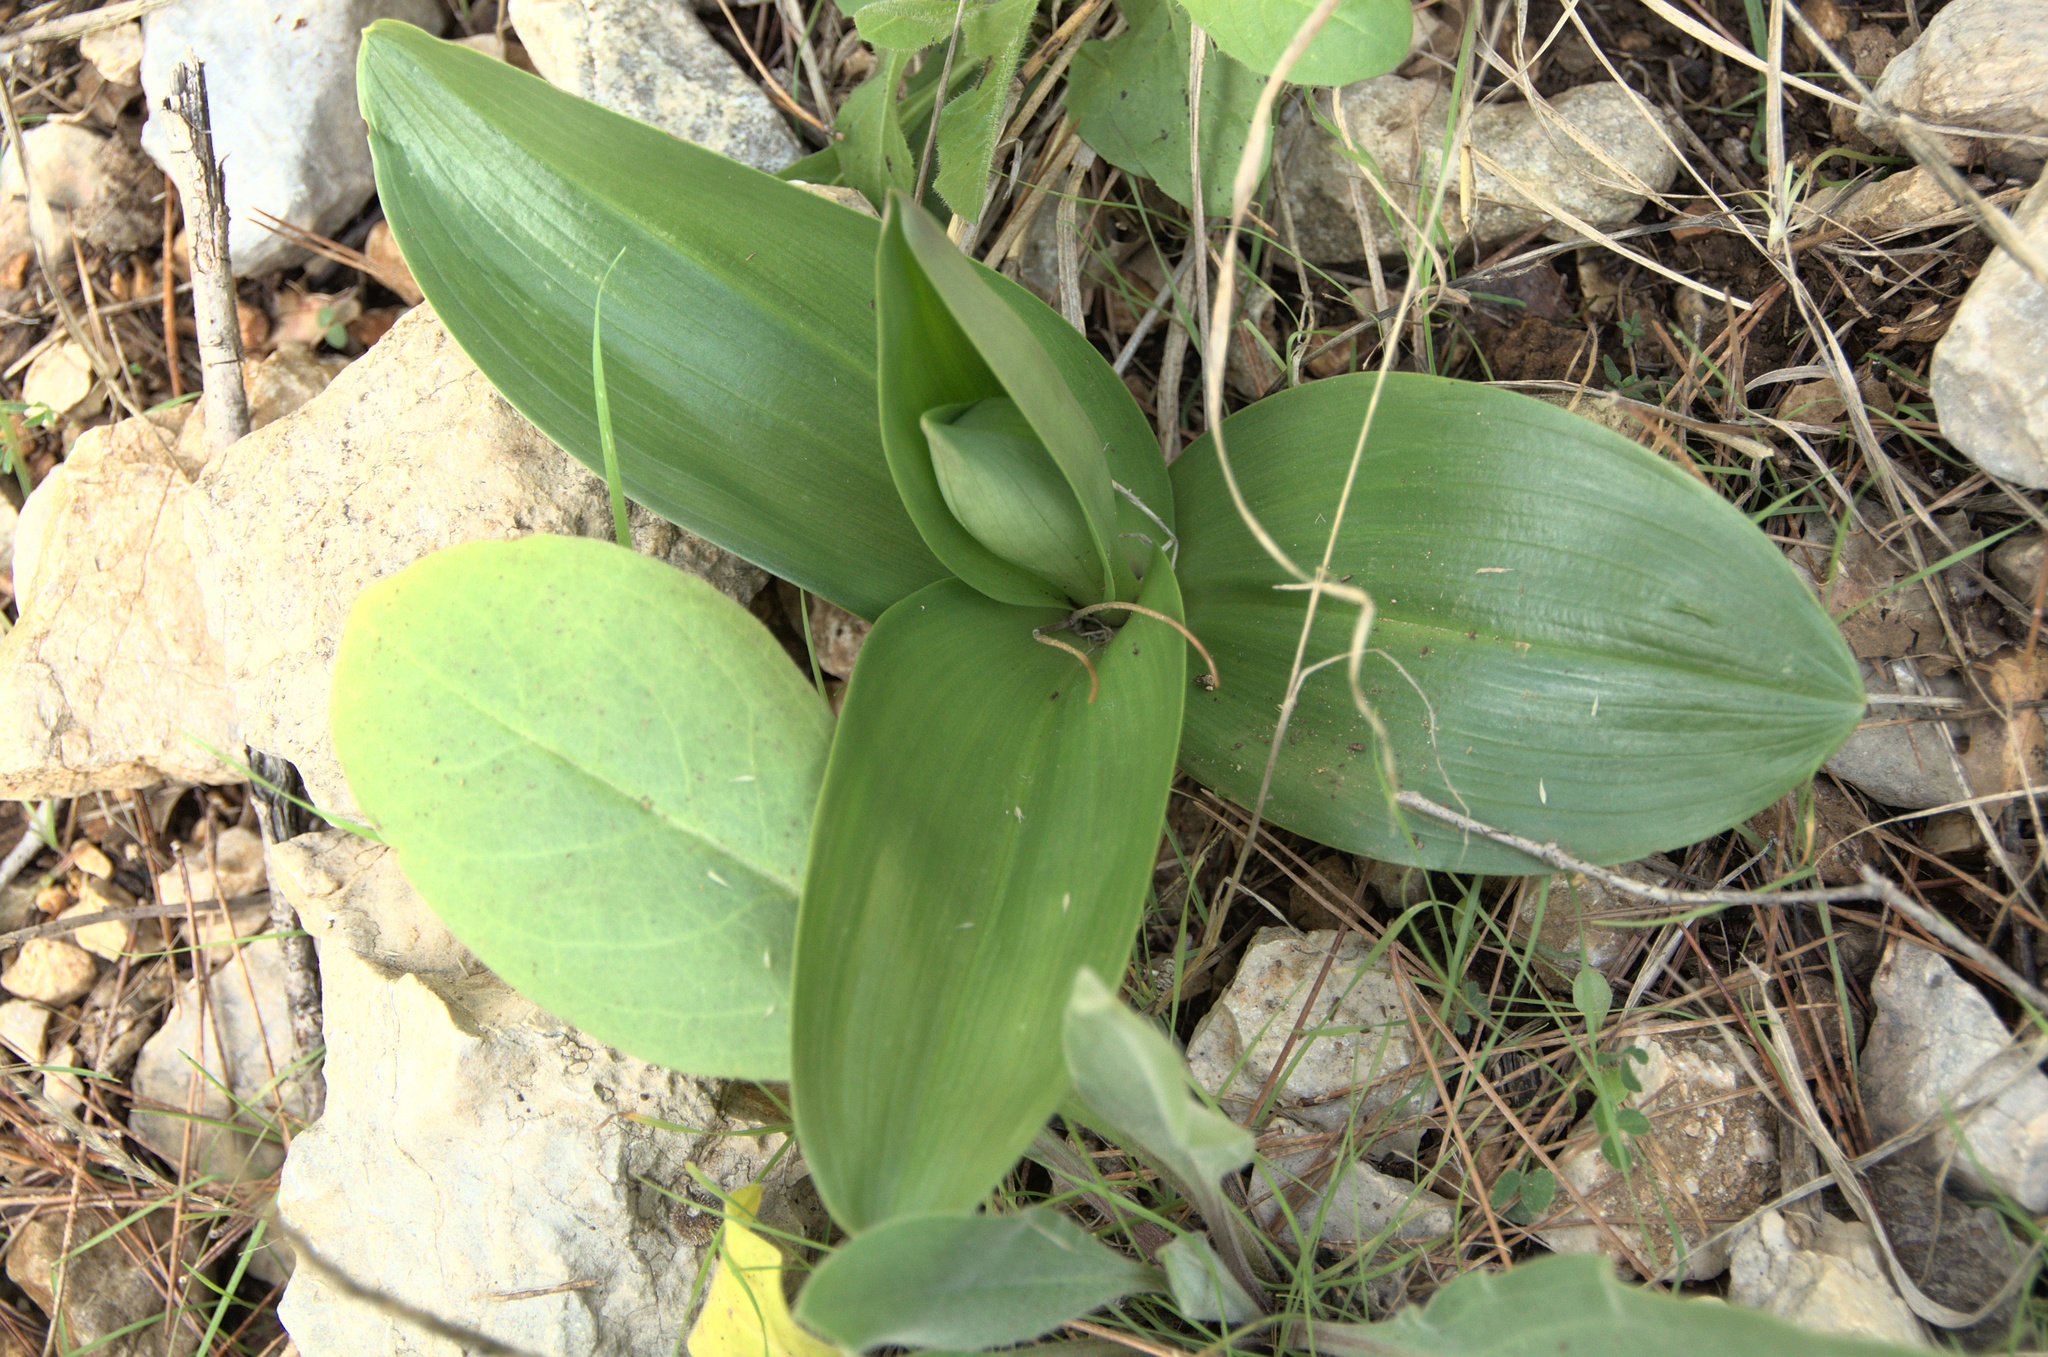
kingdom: Plantae
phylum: Tracheophyta
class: Liliopsida
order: Asparagales
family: Orchidaceae
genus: Himantoglossum
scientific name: Himantoglossum robertianum
